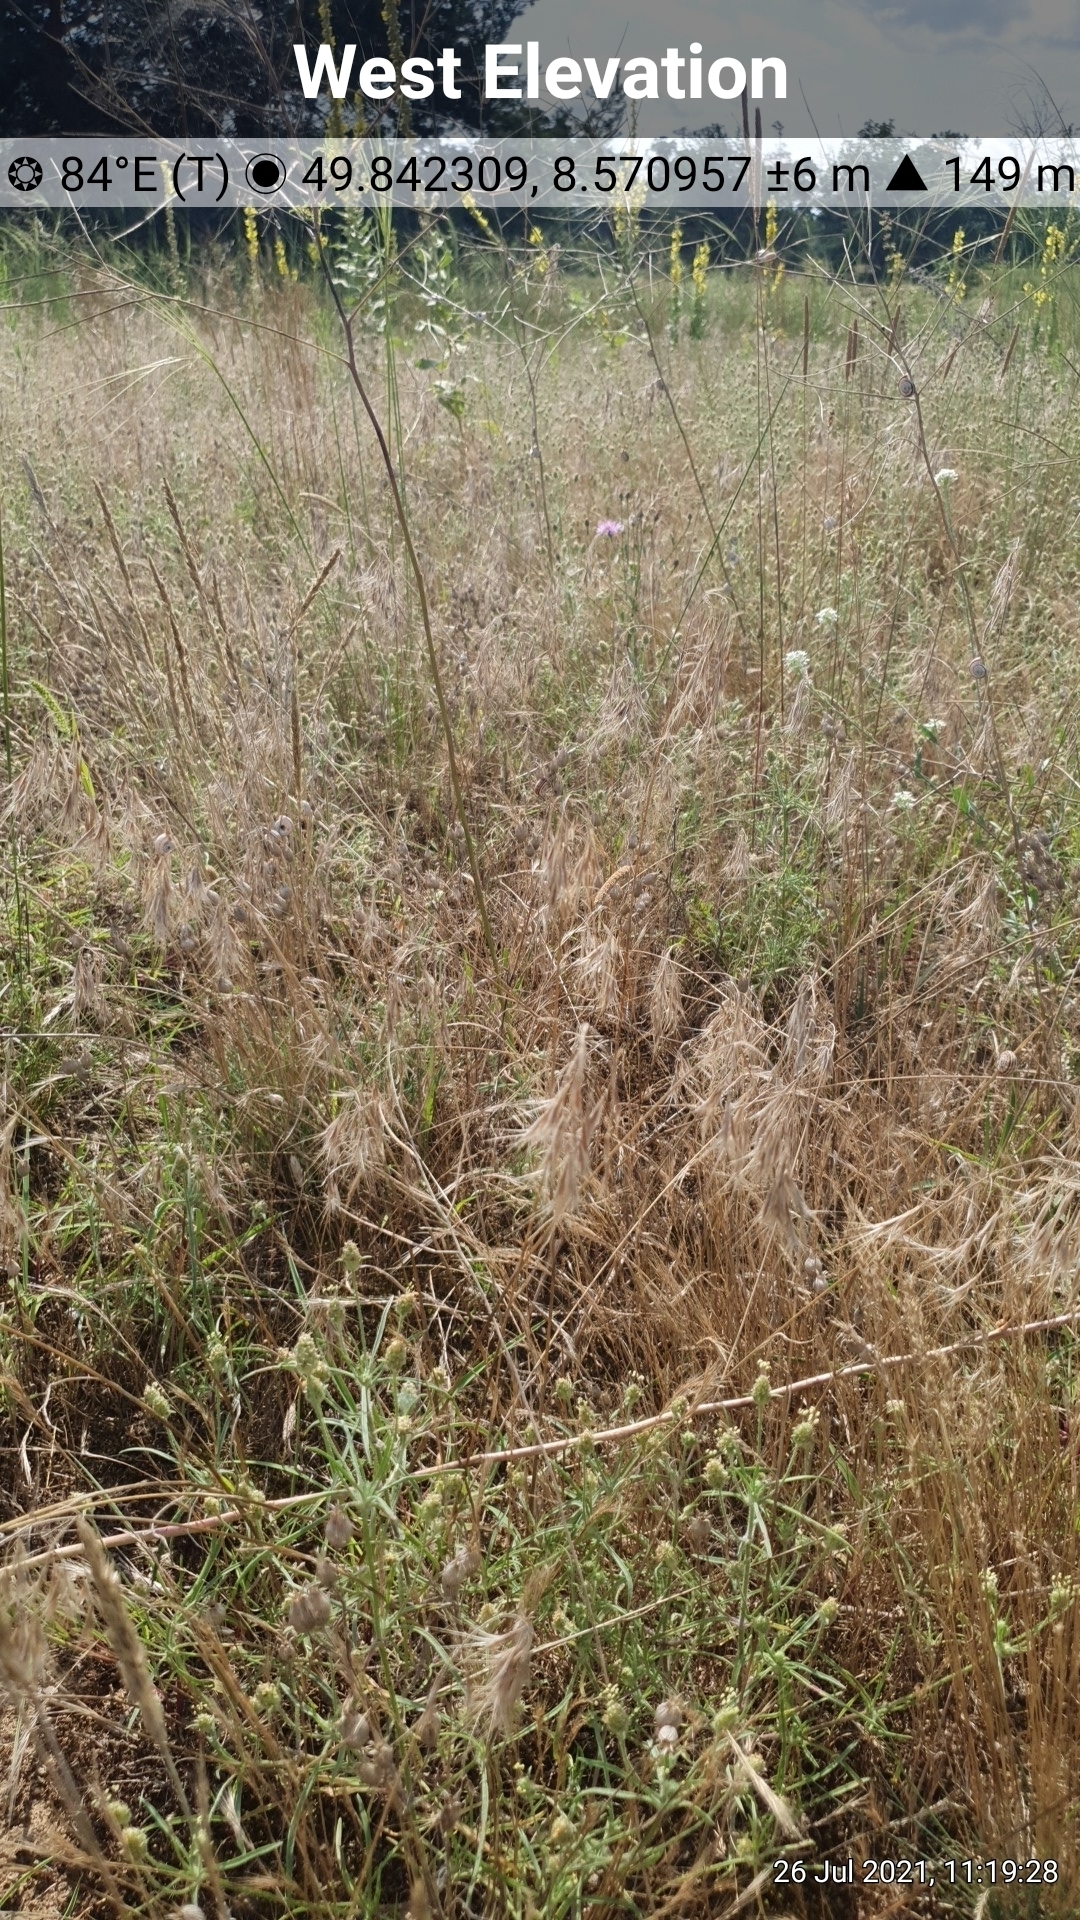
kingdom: Plantae
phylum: Tracheophyta
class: Liliopsida
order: Poales
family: Poaceae
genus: Bromus
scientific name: Bromus tectorum
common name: Cheatgrass
